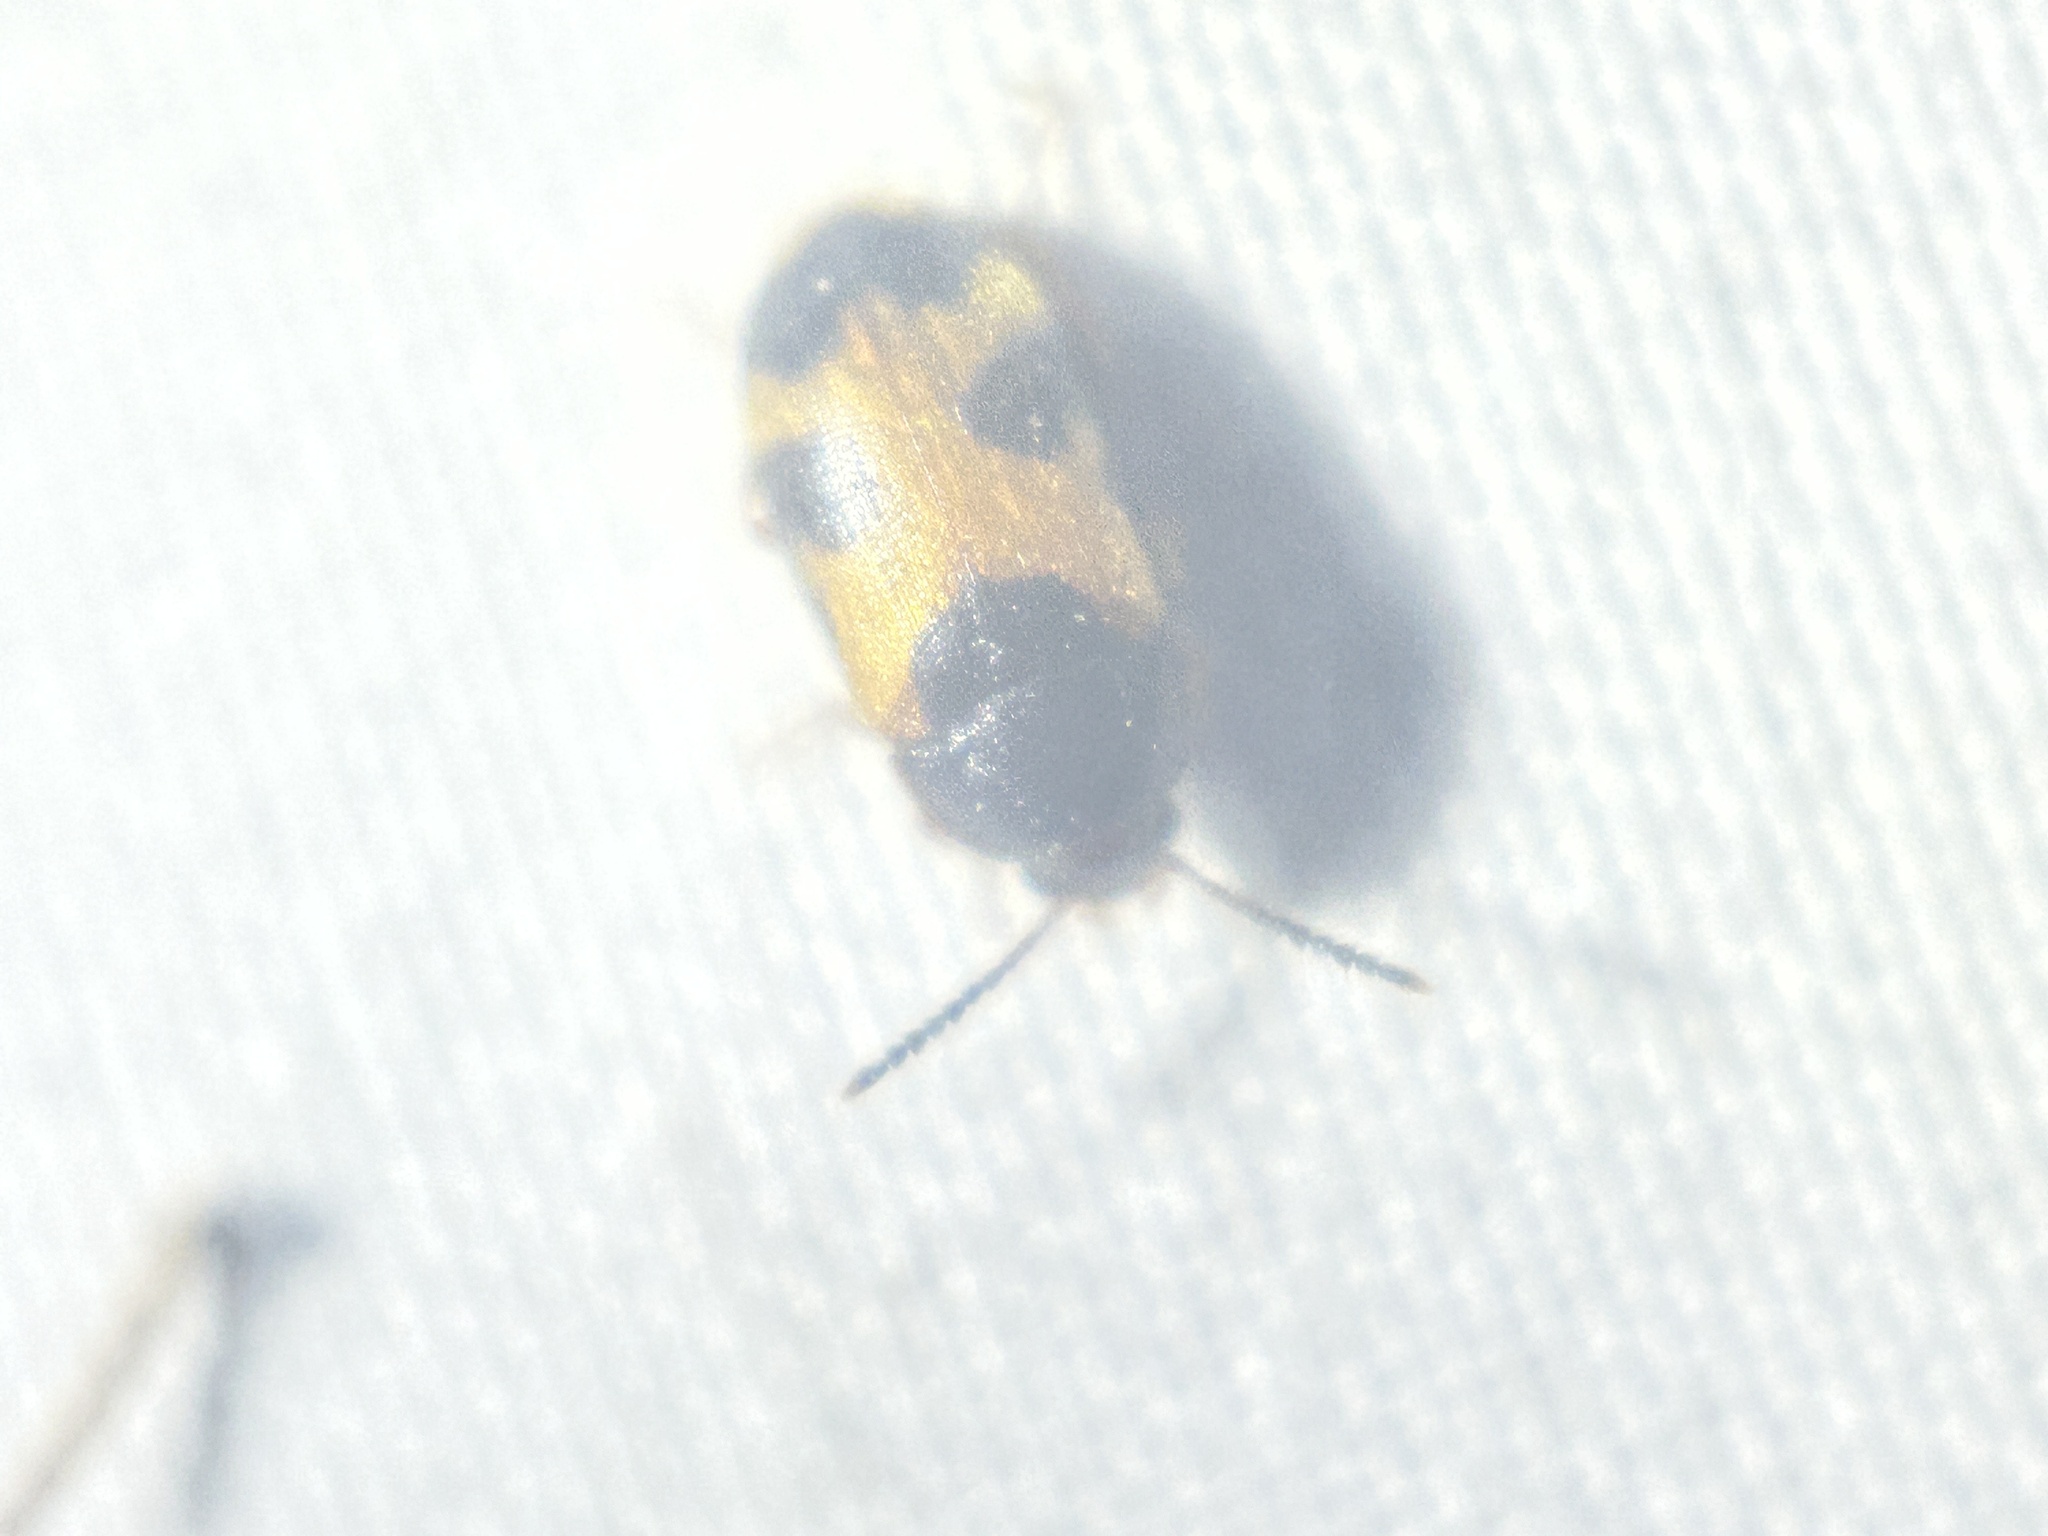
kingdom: Animalia
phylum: Arthropoda
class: Insecta
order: Coleoptera
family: Mycetophagidae
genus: Mycetophagus
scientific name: Mycetophagus punctatus
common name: Hairy fungus beetle
